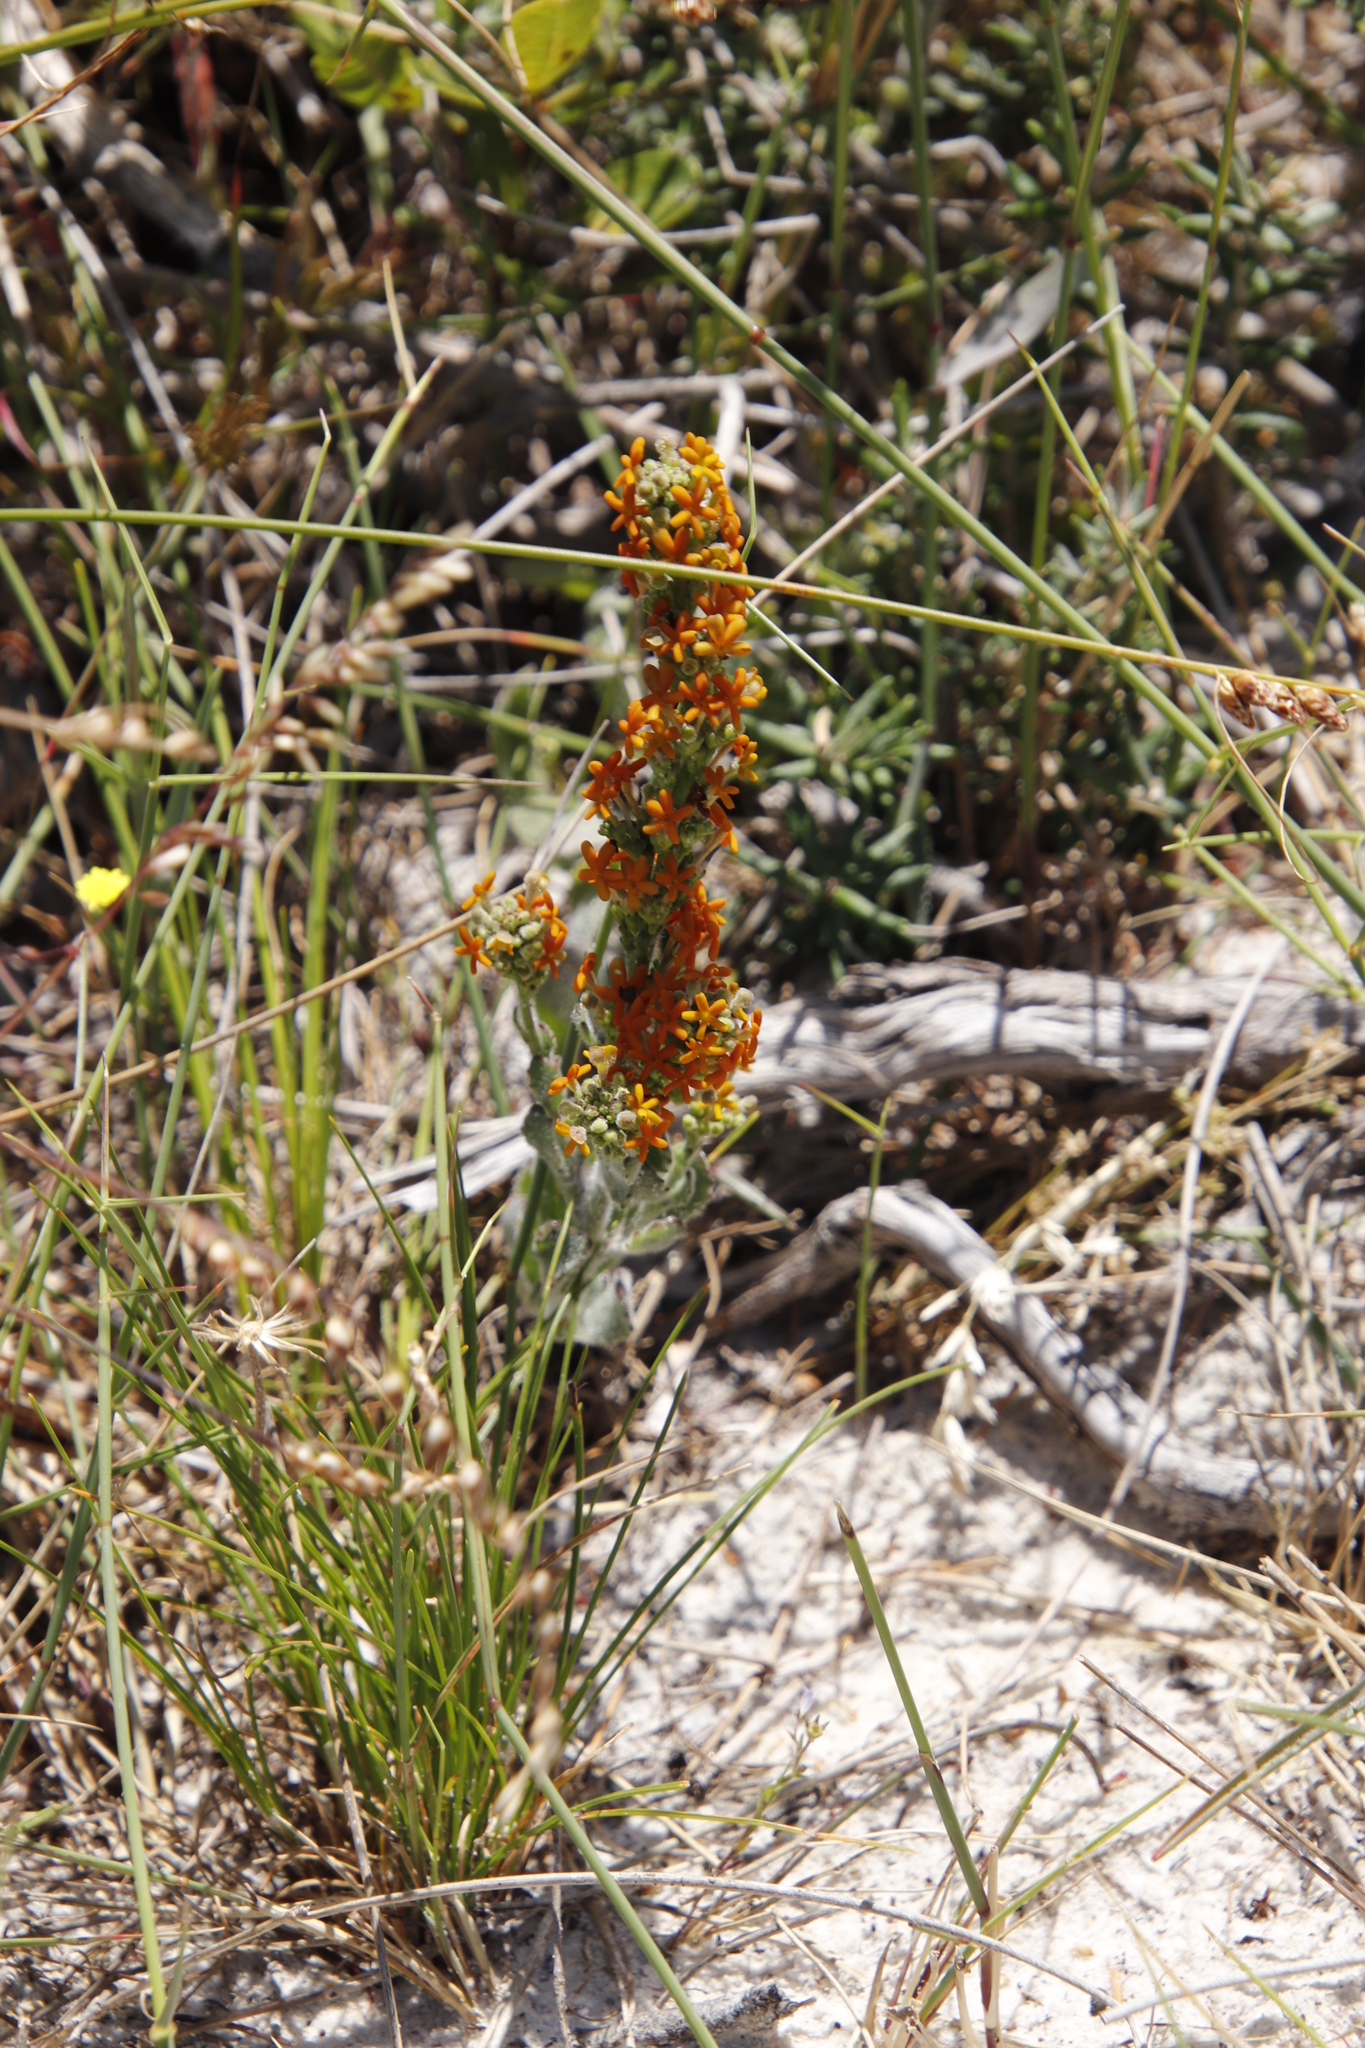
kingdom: Plantae
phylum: Tracheophyta
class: Magnoliopsida
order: Lamiales
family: Scrophulariaceae
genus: Manulea
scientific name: Manulea tomentosa
